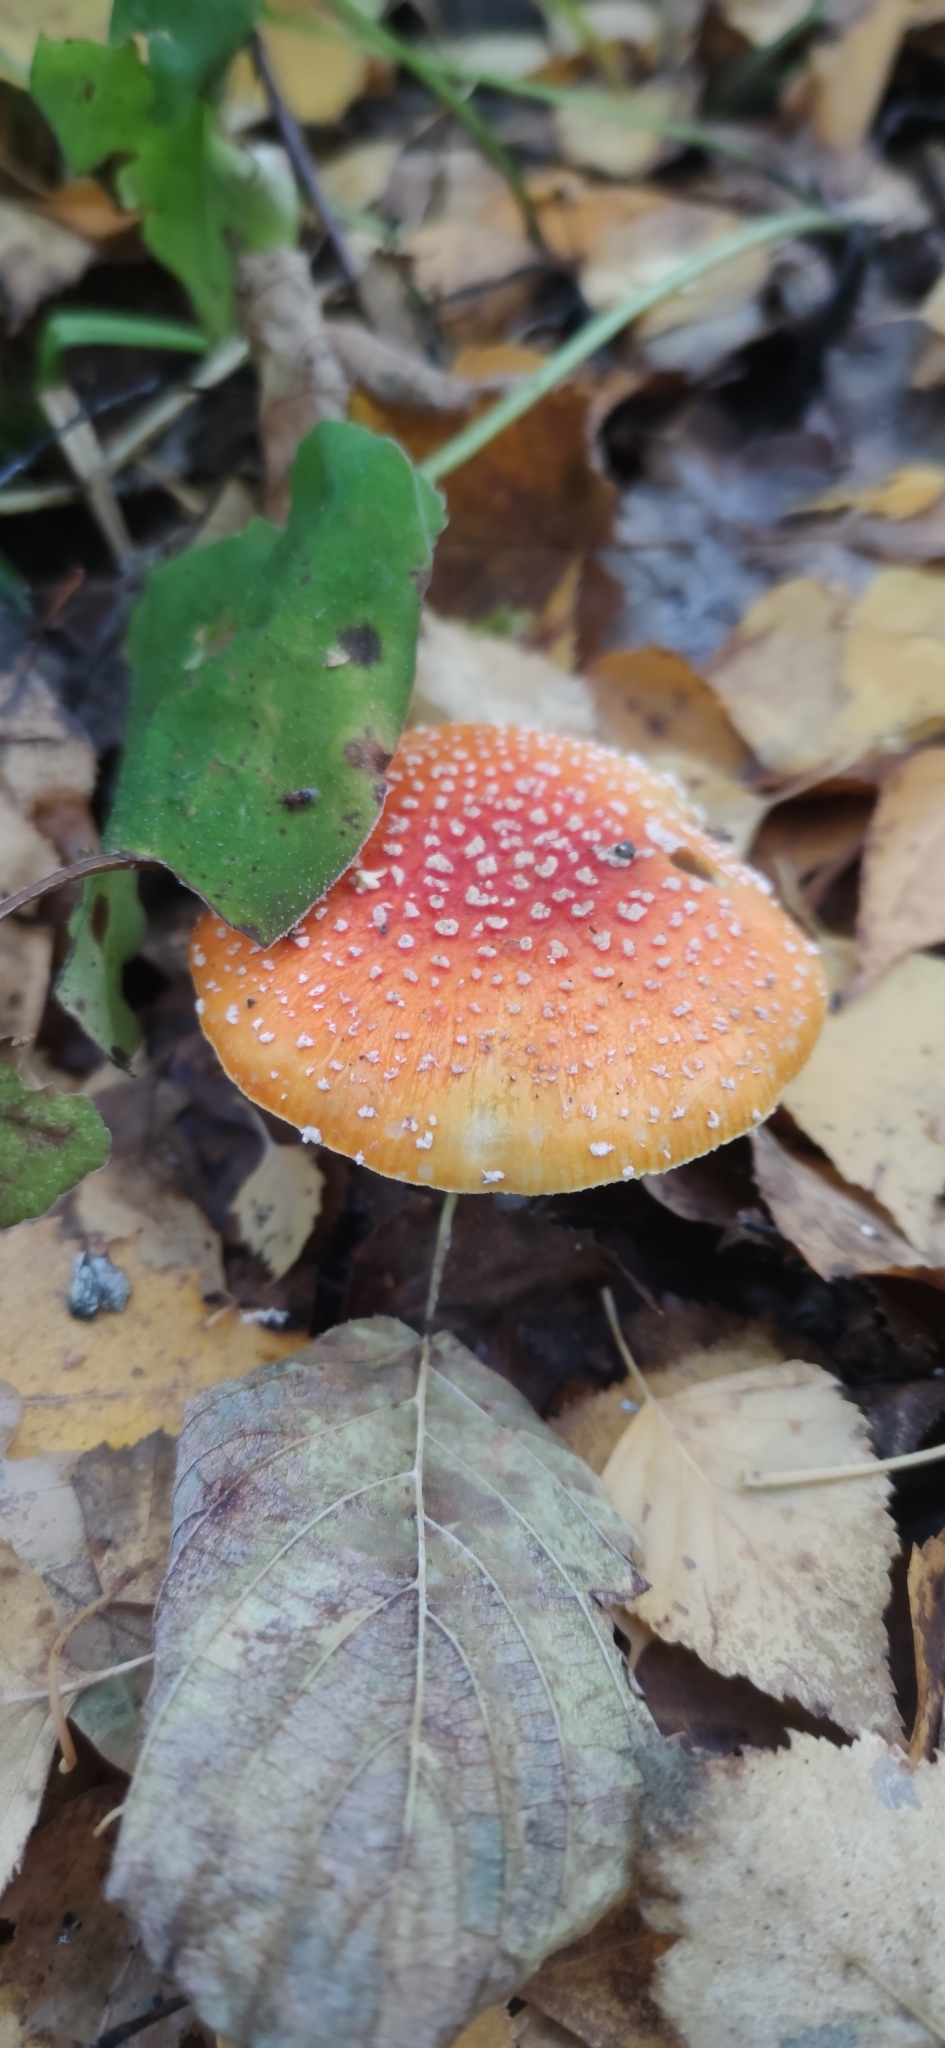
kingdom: Fungi
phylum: Basidiomycota
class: Agaricomycetes
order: Agaricales
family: Amanitaceae
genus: Amanita
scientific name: Amanita muscaria
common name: Fly agaric
